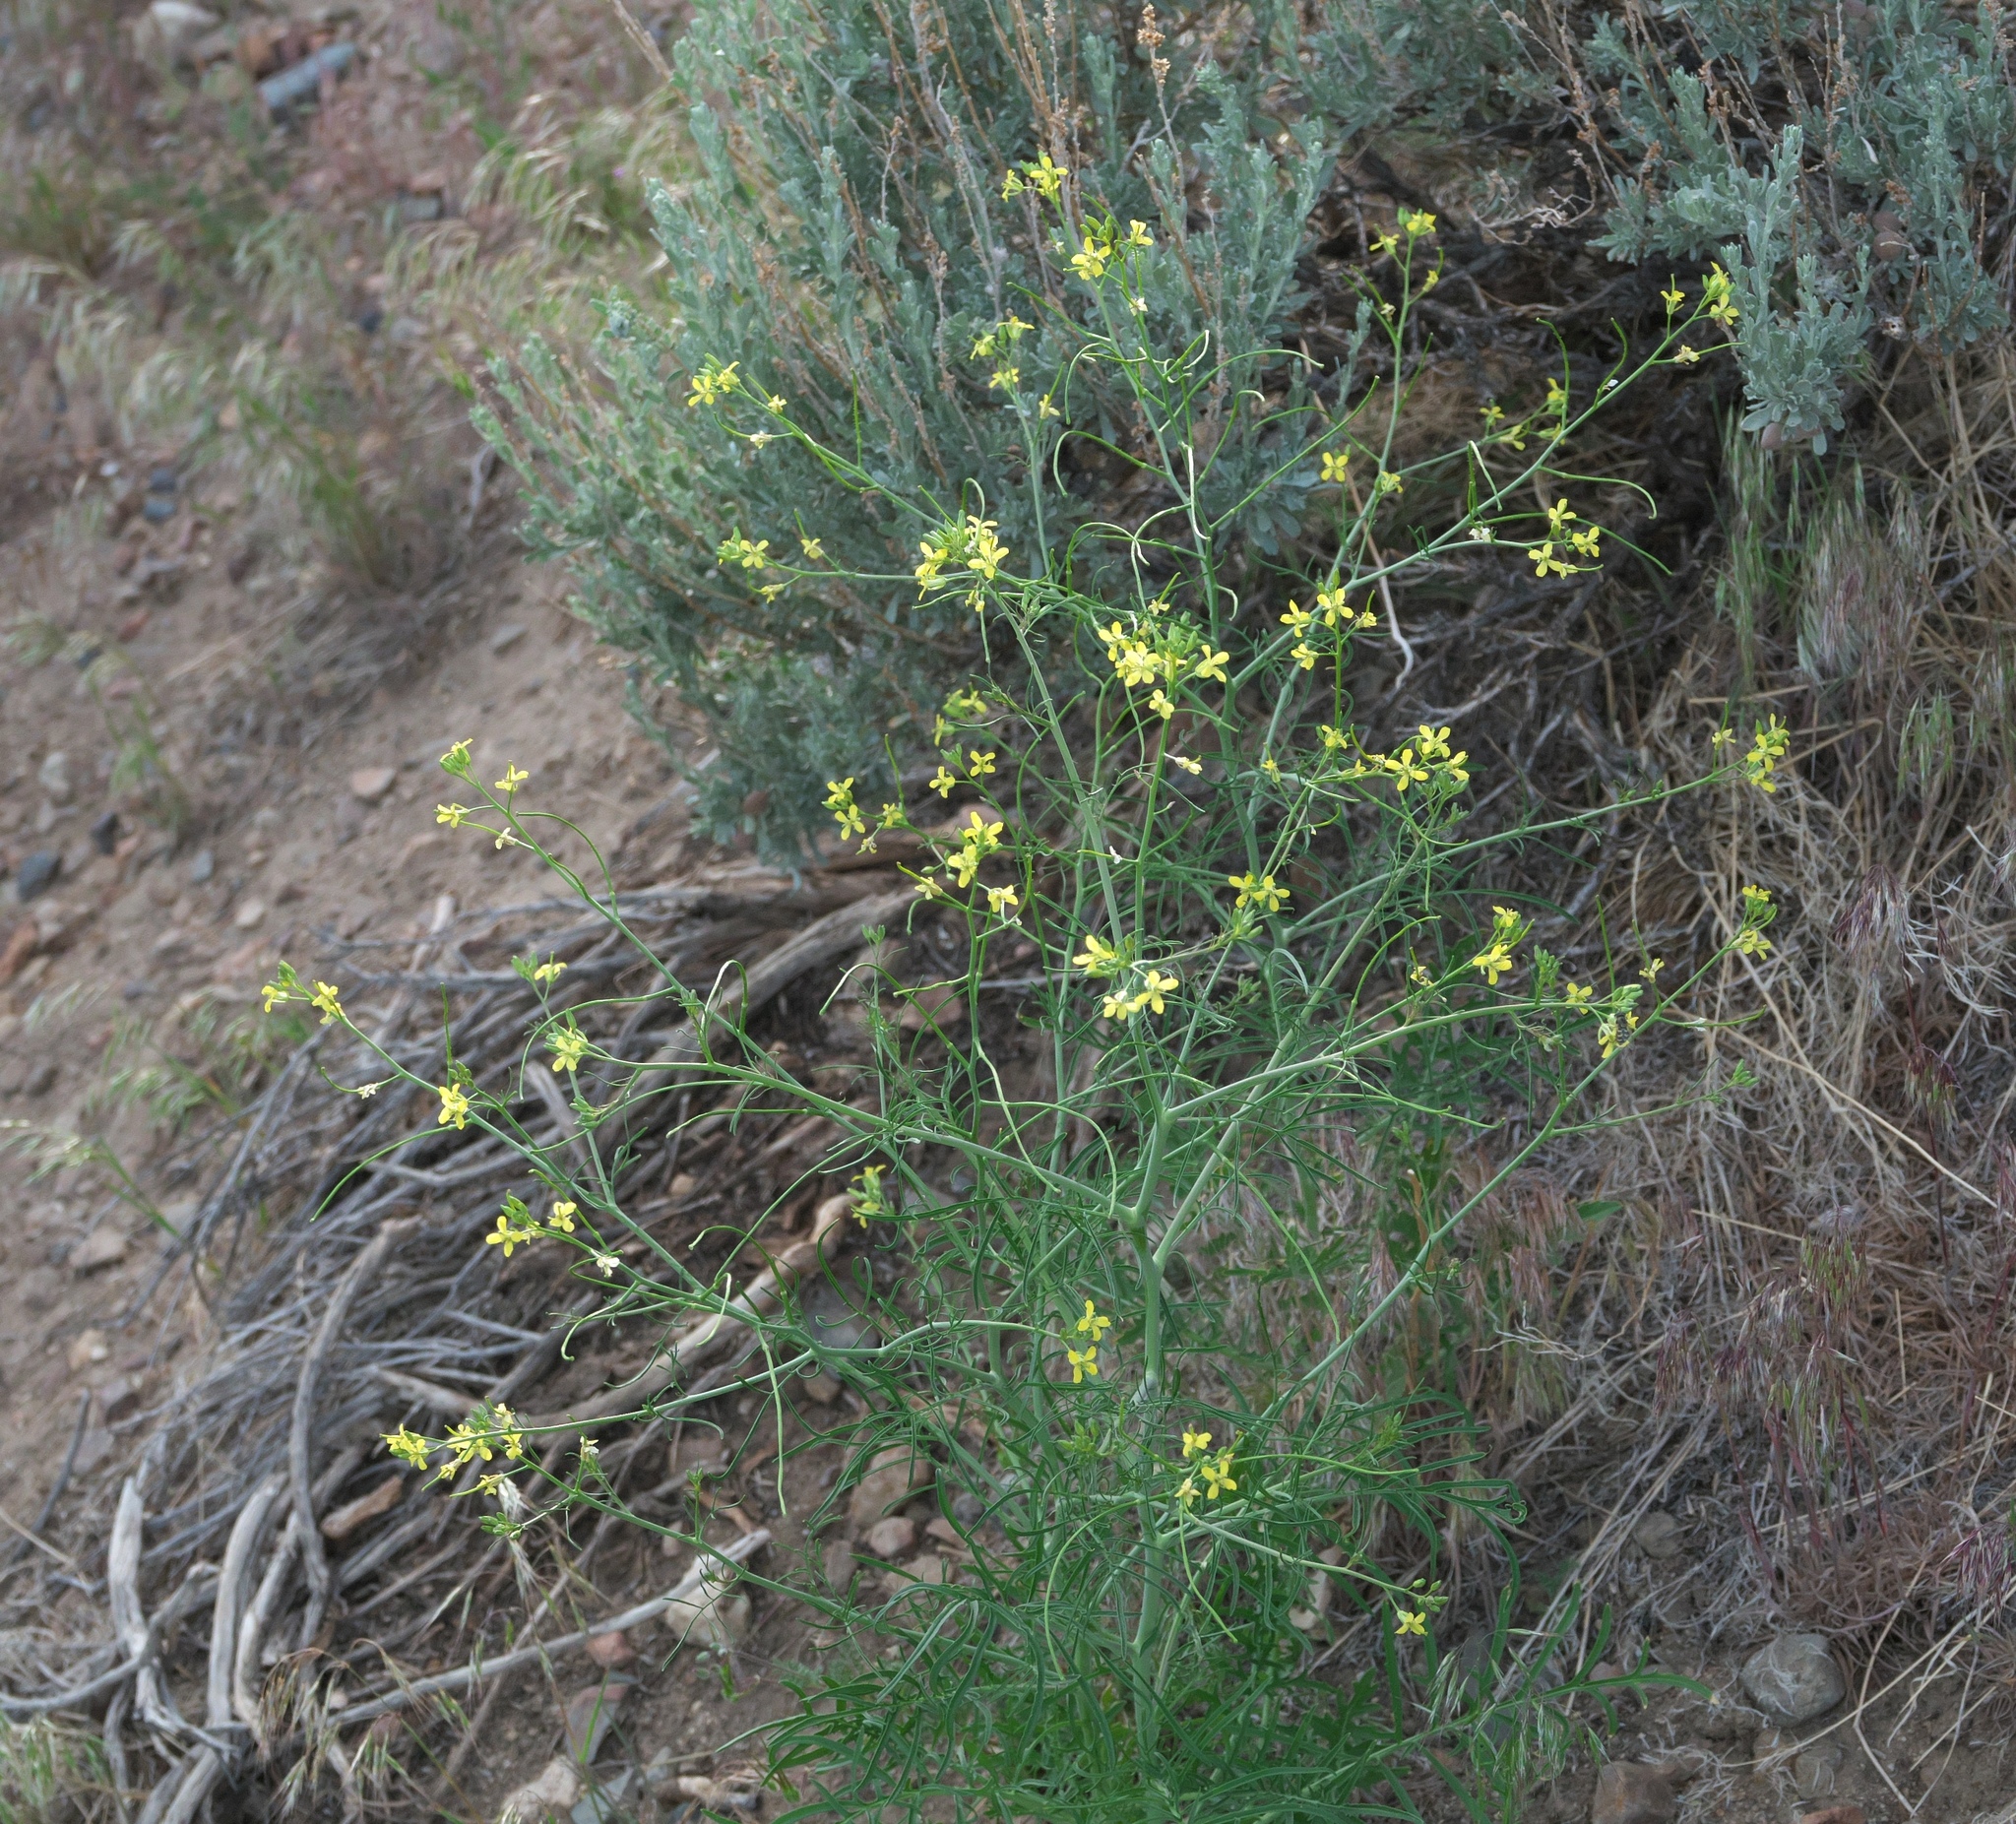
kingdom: Plantae
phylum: Tracheophyta
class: Magnoliopsida
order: Brassicales
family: Brassicaceae
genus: Sisymbrium
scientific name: Sisymbrium altissimum
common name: Tall rocket
